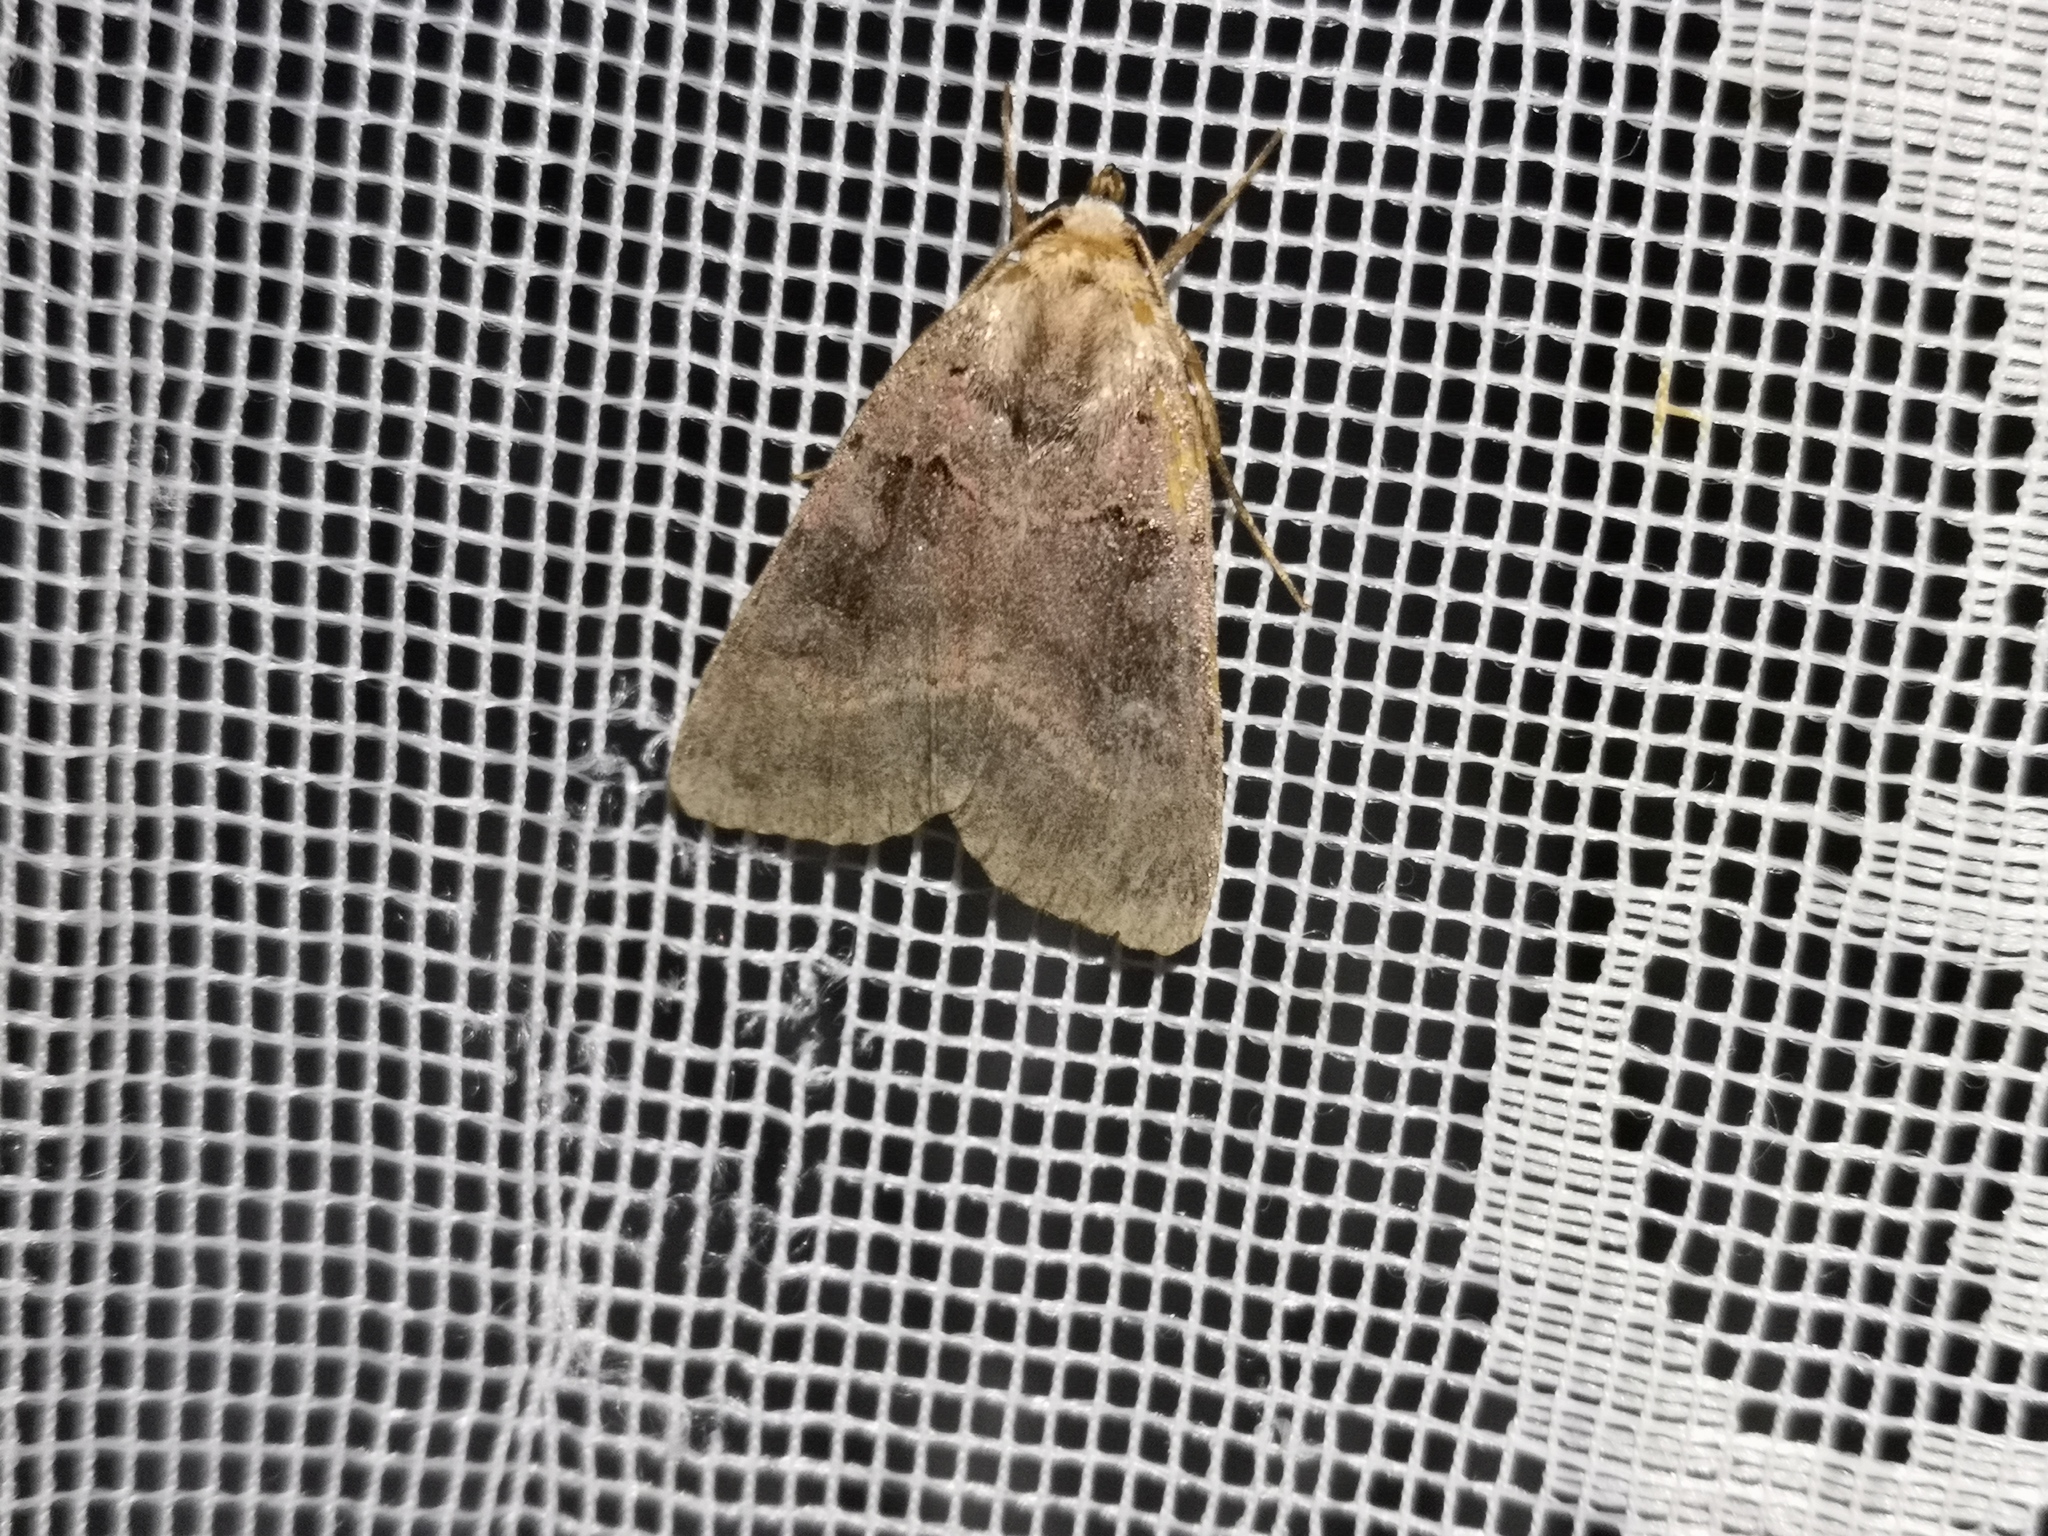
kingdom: Animalia
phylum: Arthropoda
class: Insecta
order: Lepidoptera
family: Noctuidae
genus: Xestia
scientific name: Xestia stigmatica
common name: Square-spotted clay
